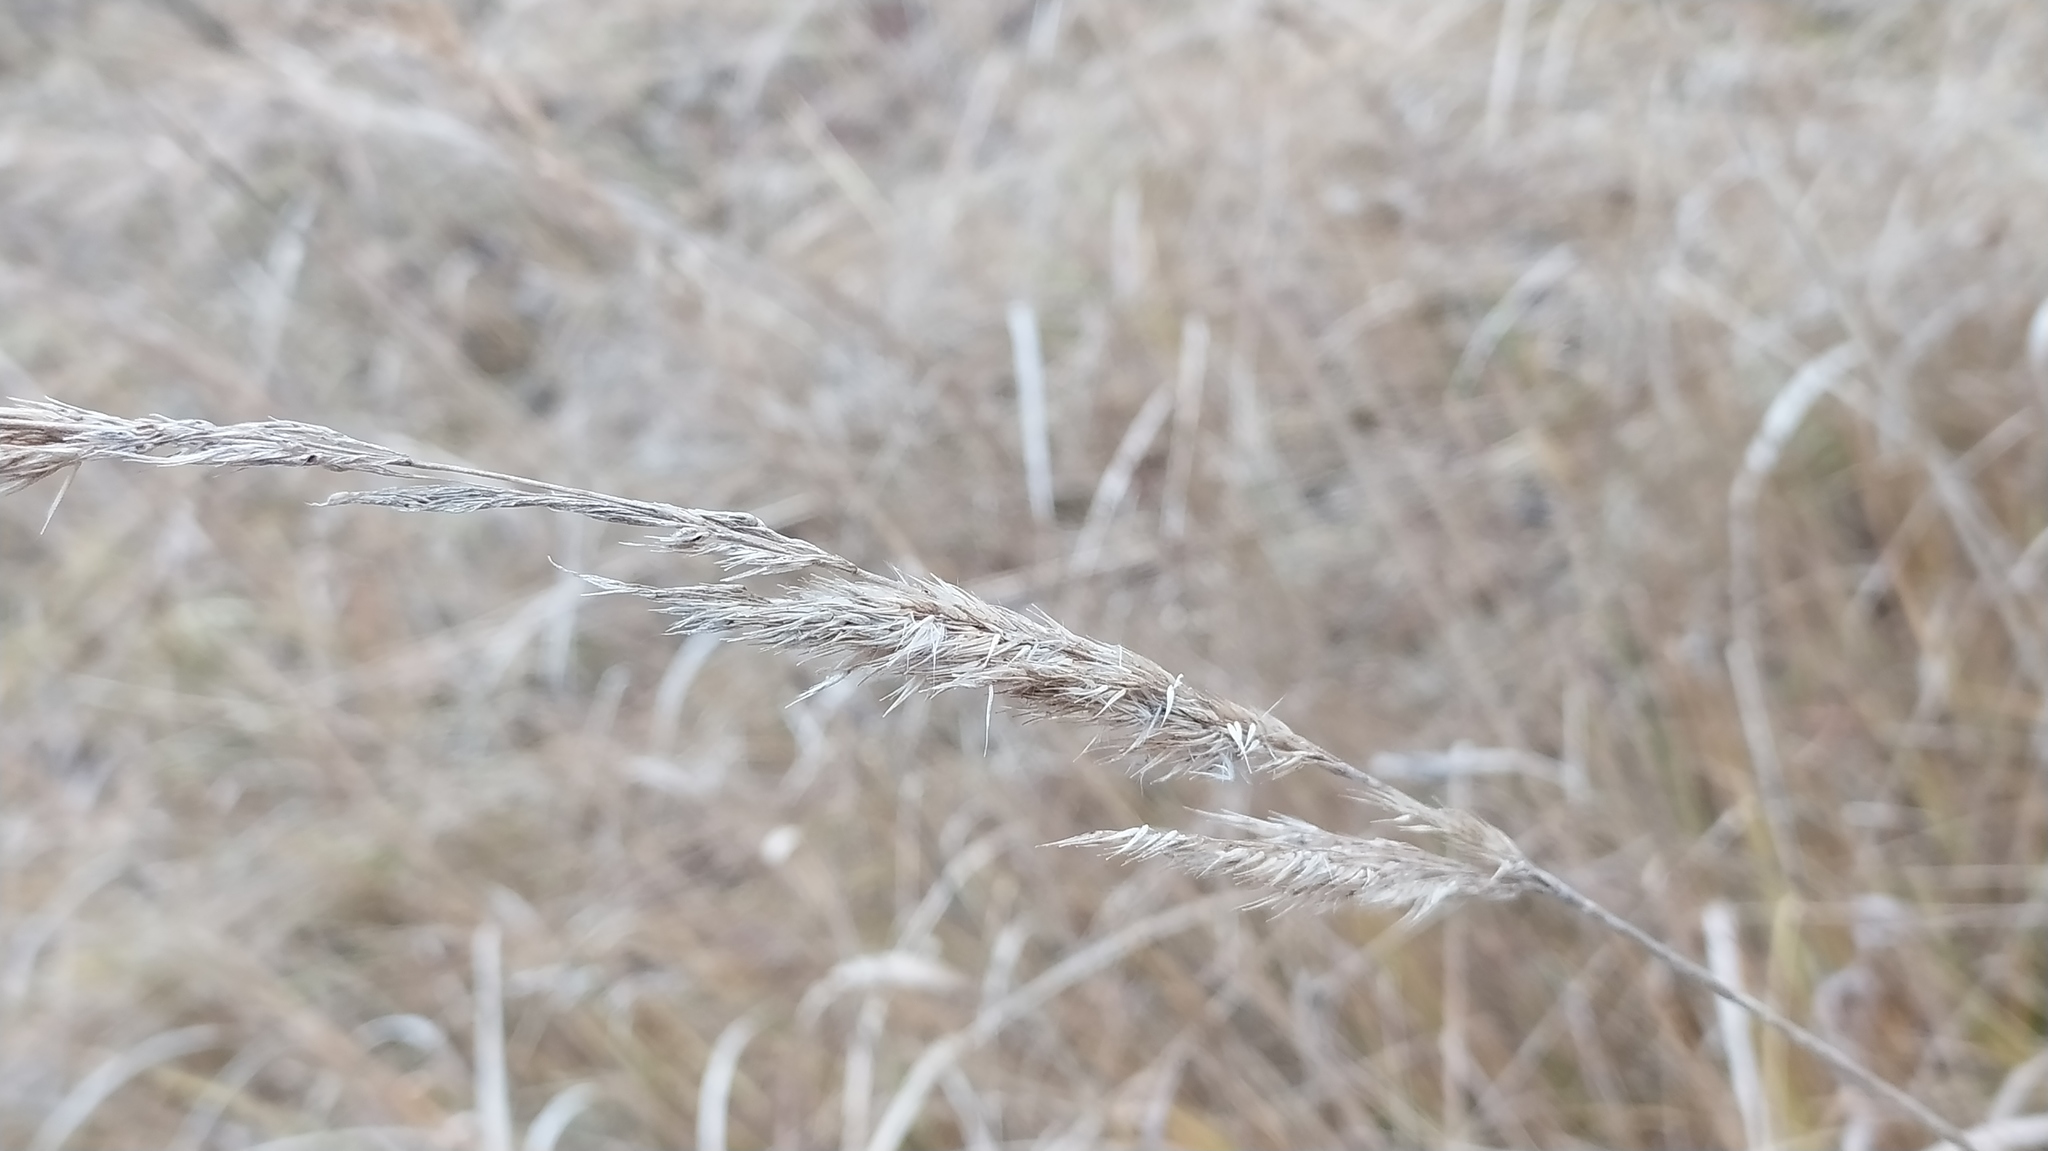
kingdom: Plantae
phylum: Tracheophyta
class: Liliopsida
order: Poales
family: Poaceae
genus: Calamagrostis
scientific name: Calamagrostis epigejos
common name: Wood small-reed
